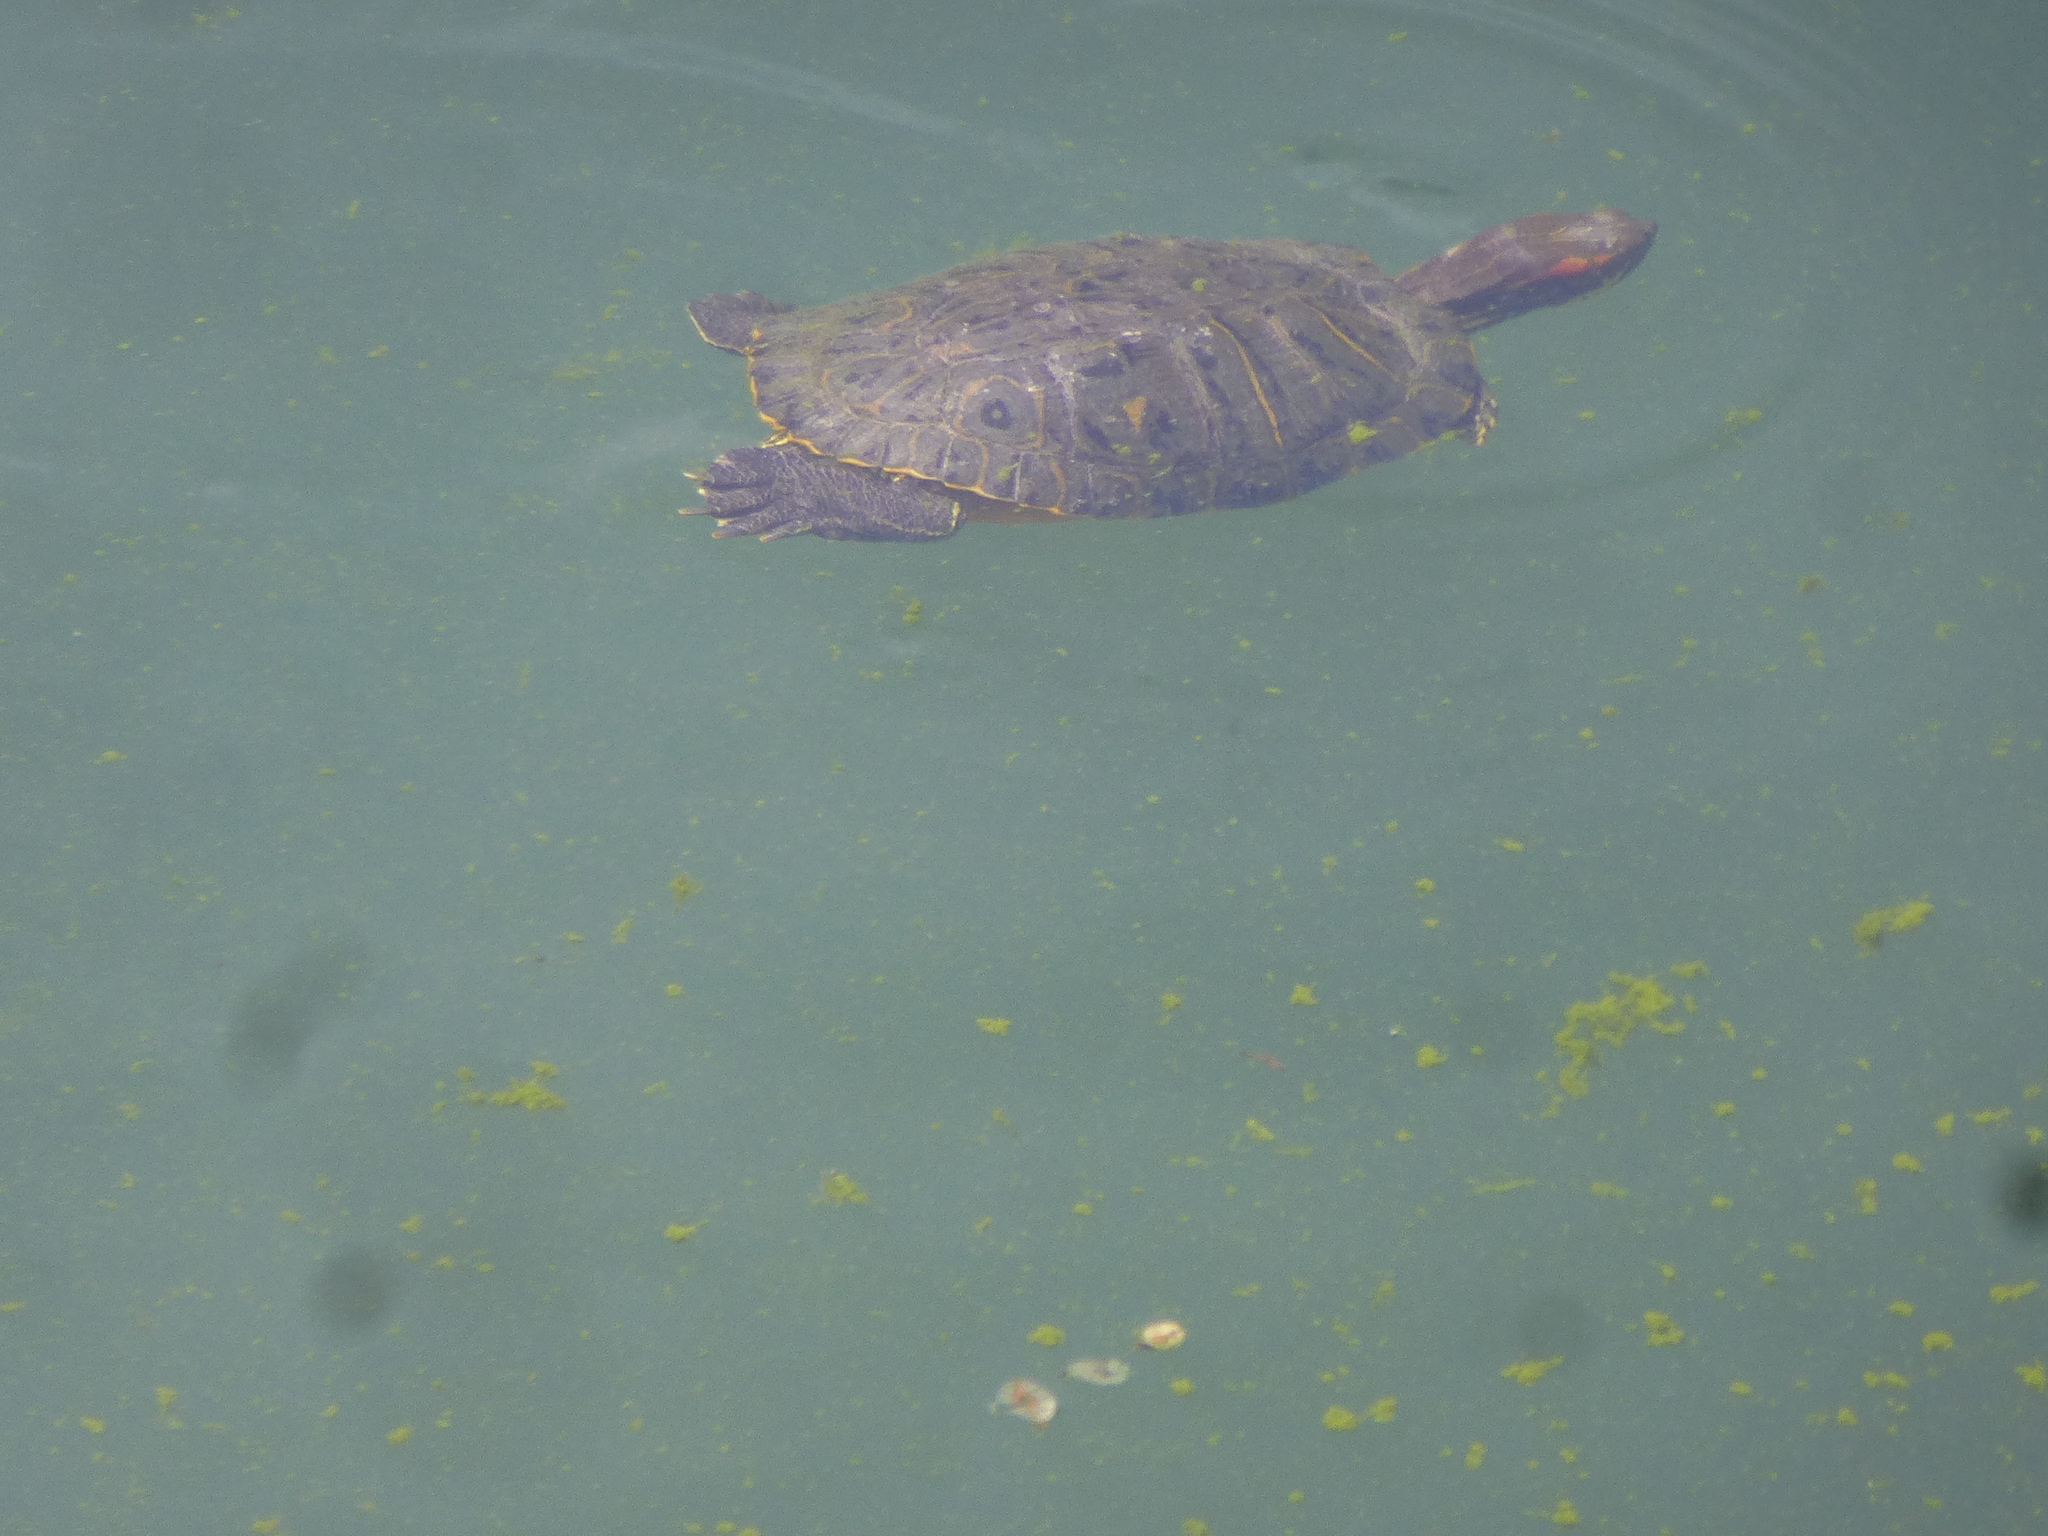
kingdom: Animalia
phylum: Chordata
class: Testudines
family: Emydidae
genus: Trachemys
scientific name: Trachemys scripta
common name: Slider
